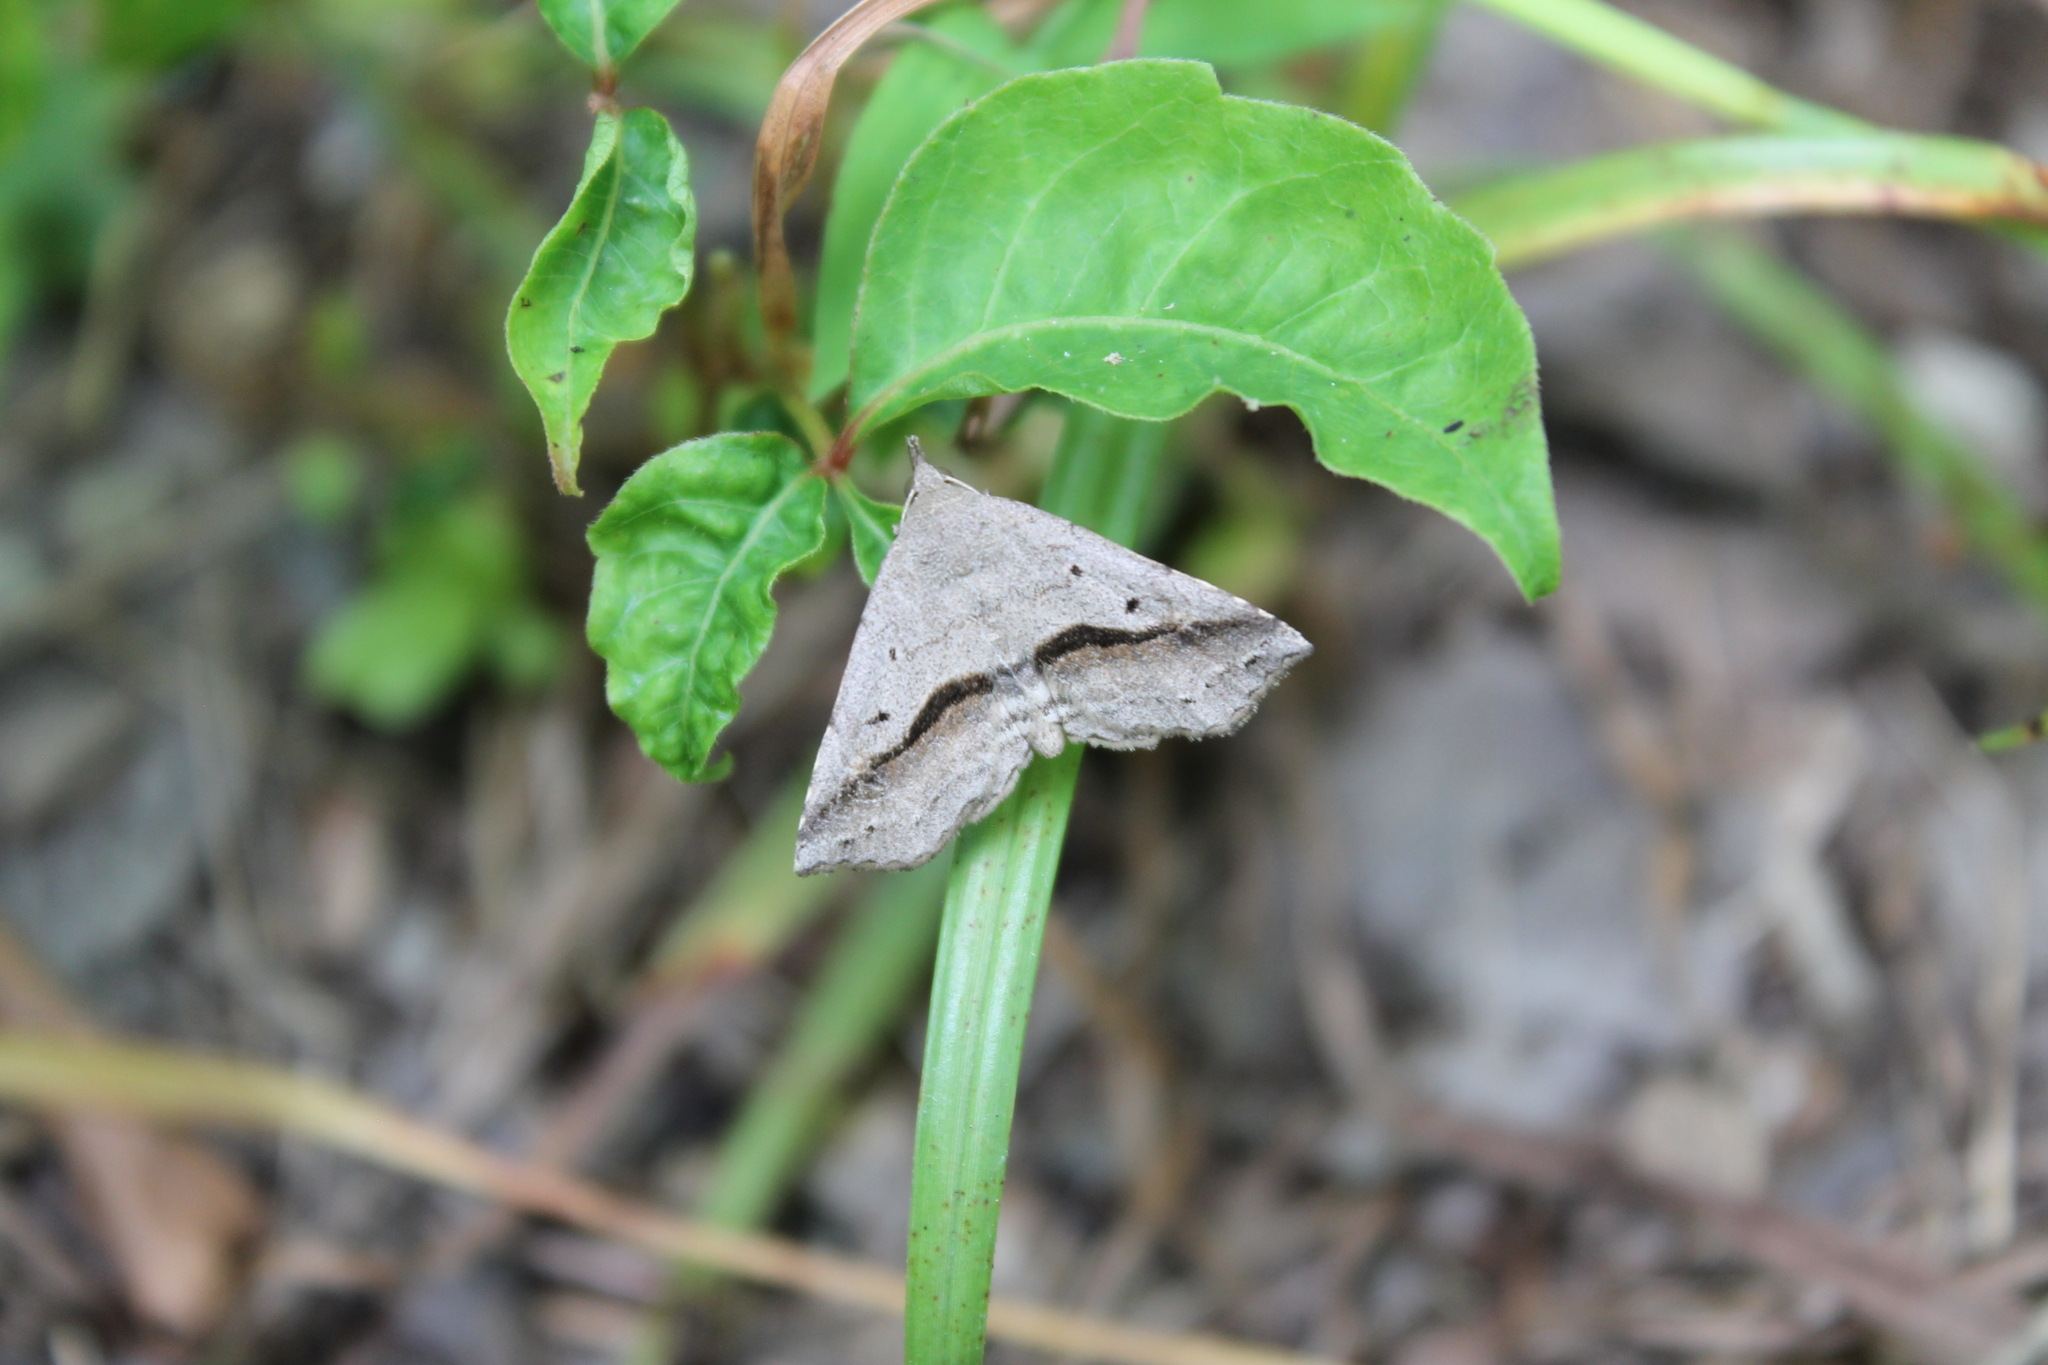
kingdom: Animalia
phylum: Arthropoda
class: Insecta
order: Lepidoptera
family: Erebidae
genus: Spargaloma
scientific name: Spargaloma perditalis
